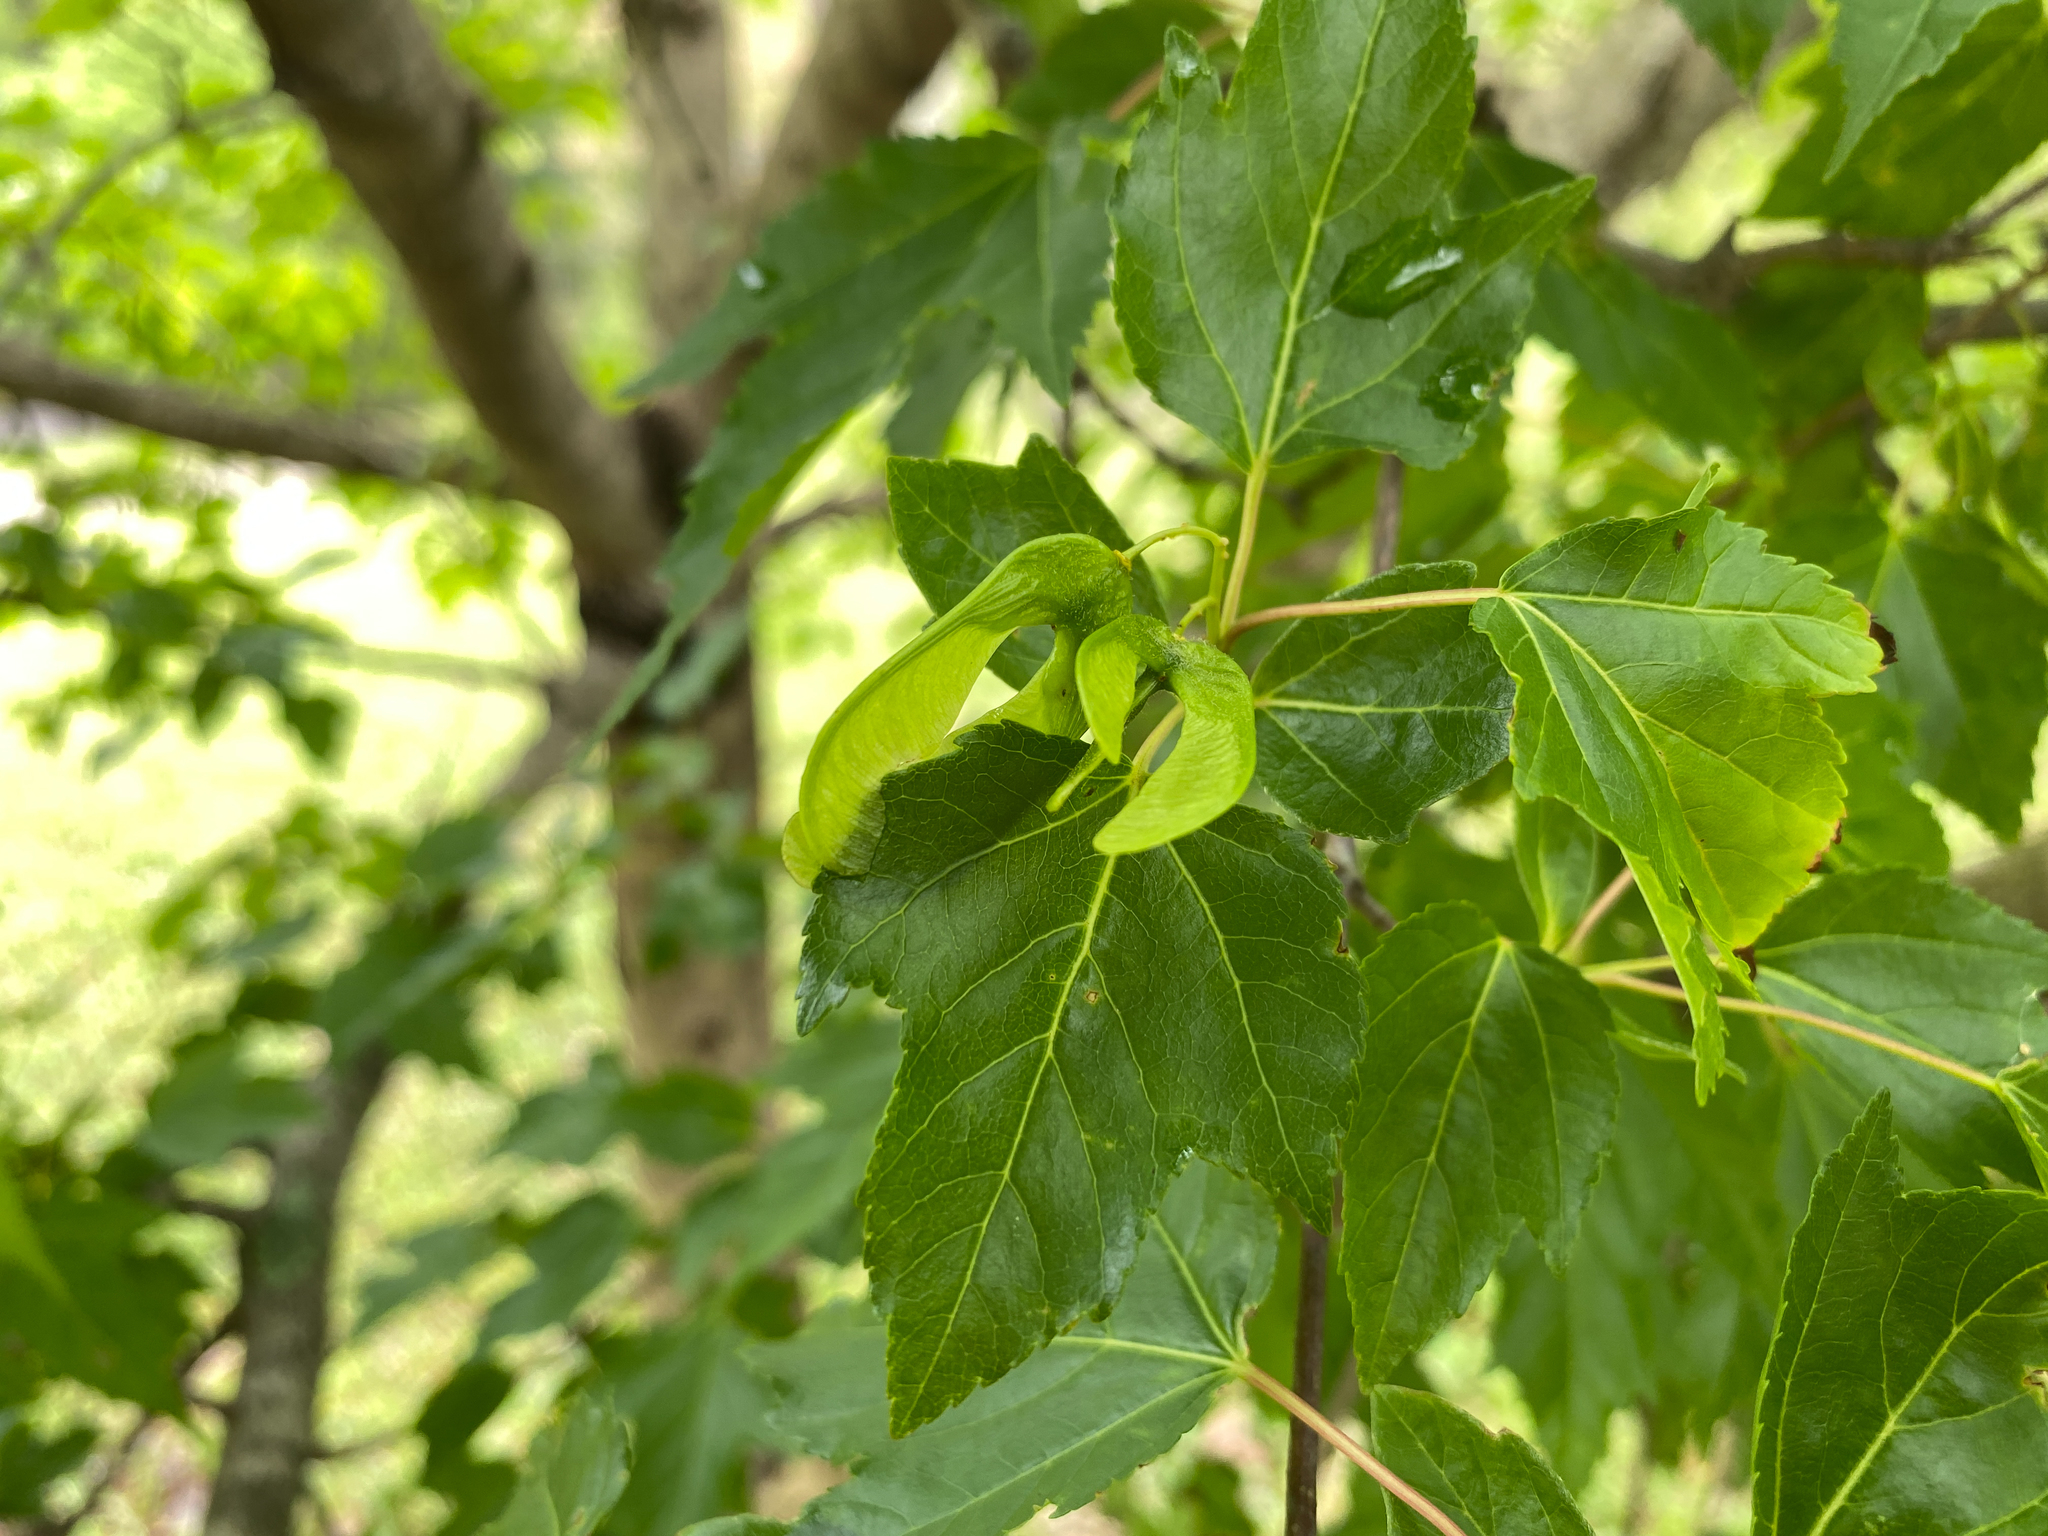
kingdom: Plantae
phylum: Tracheophyta
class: Magnoliopsida
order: Sapindales
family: Sapindaceae
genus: Acer
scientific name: Acer tataricum
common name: Tartar maple
